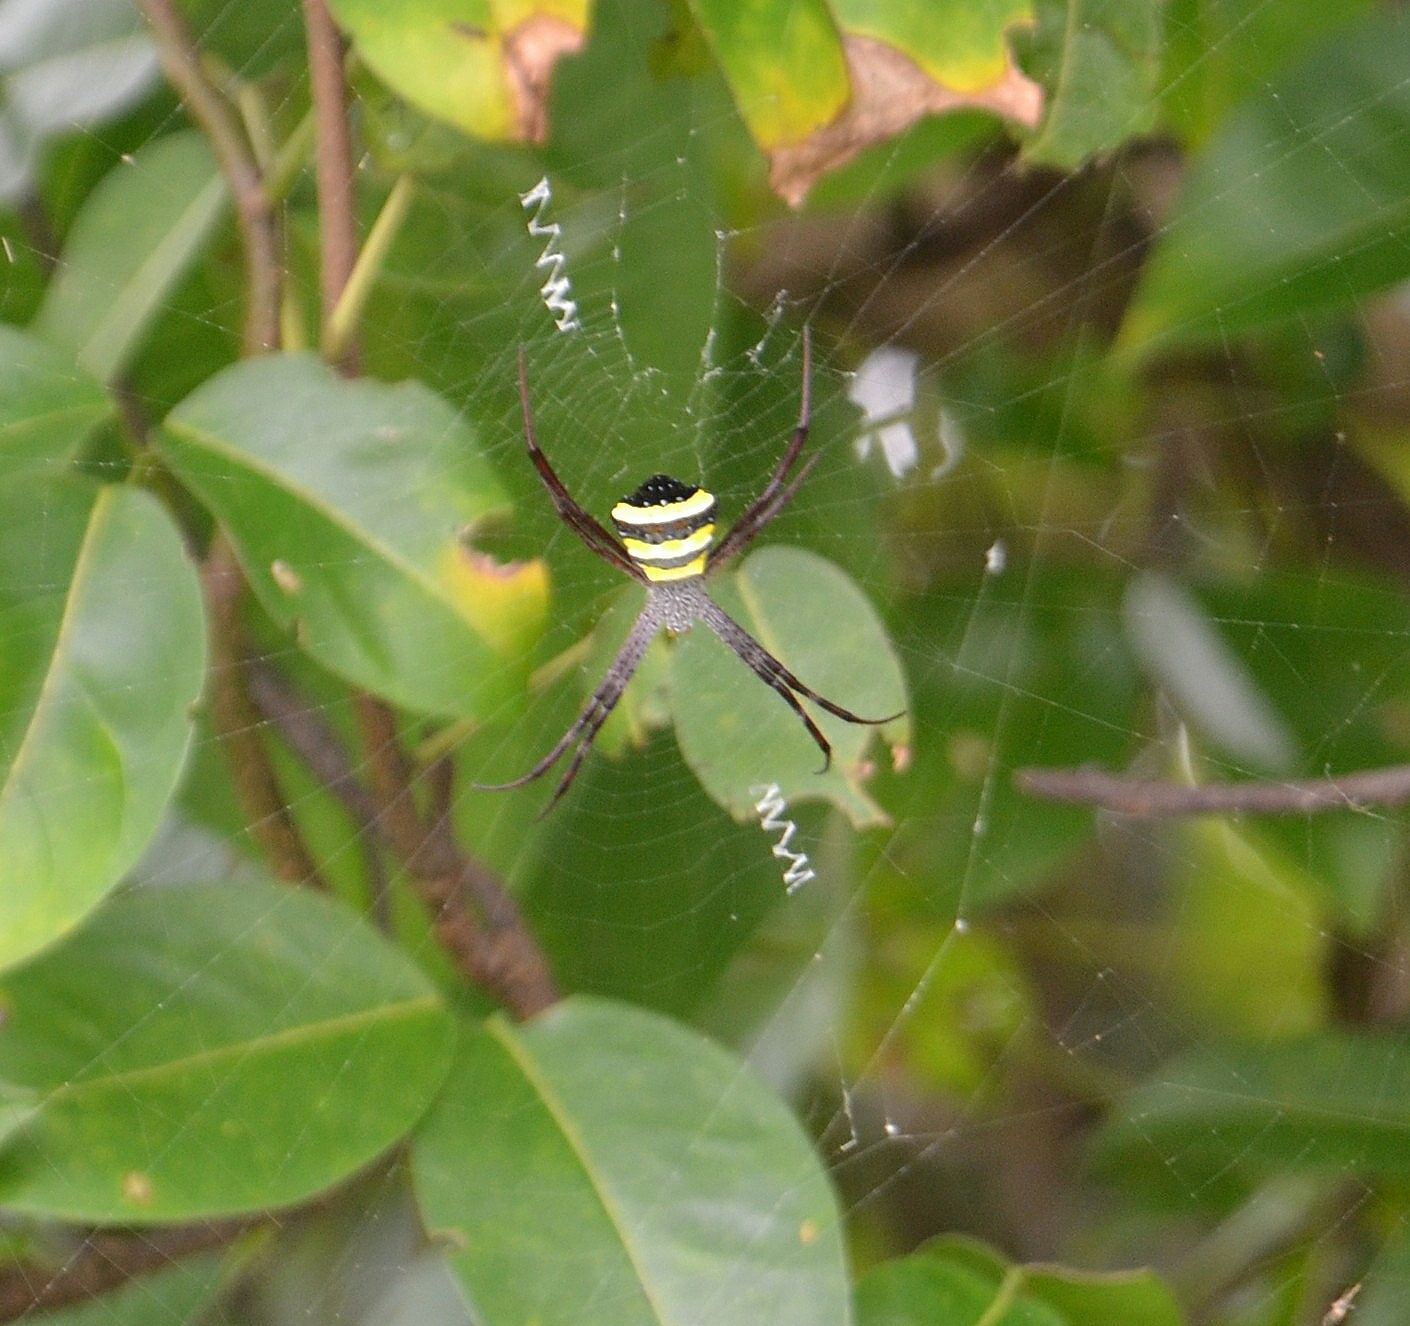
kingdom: Animalia
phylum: Arthropoda
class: Arachnida
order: Araneae
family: Araneidae
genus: Argiope
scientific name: Argiope taprobanica
